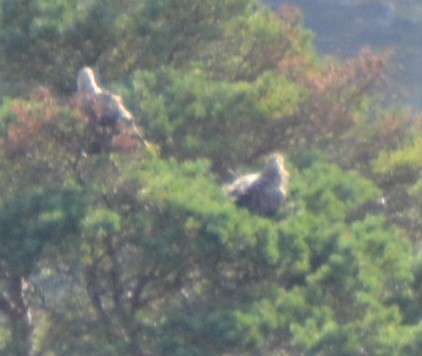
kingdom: Animalia
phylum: Chordata
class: Aves
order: Accipitriformes
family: Accipitridae
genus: Haliaeetus
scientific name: Haliaeetus albicilla
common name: White-tailed eagle
